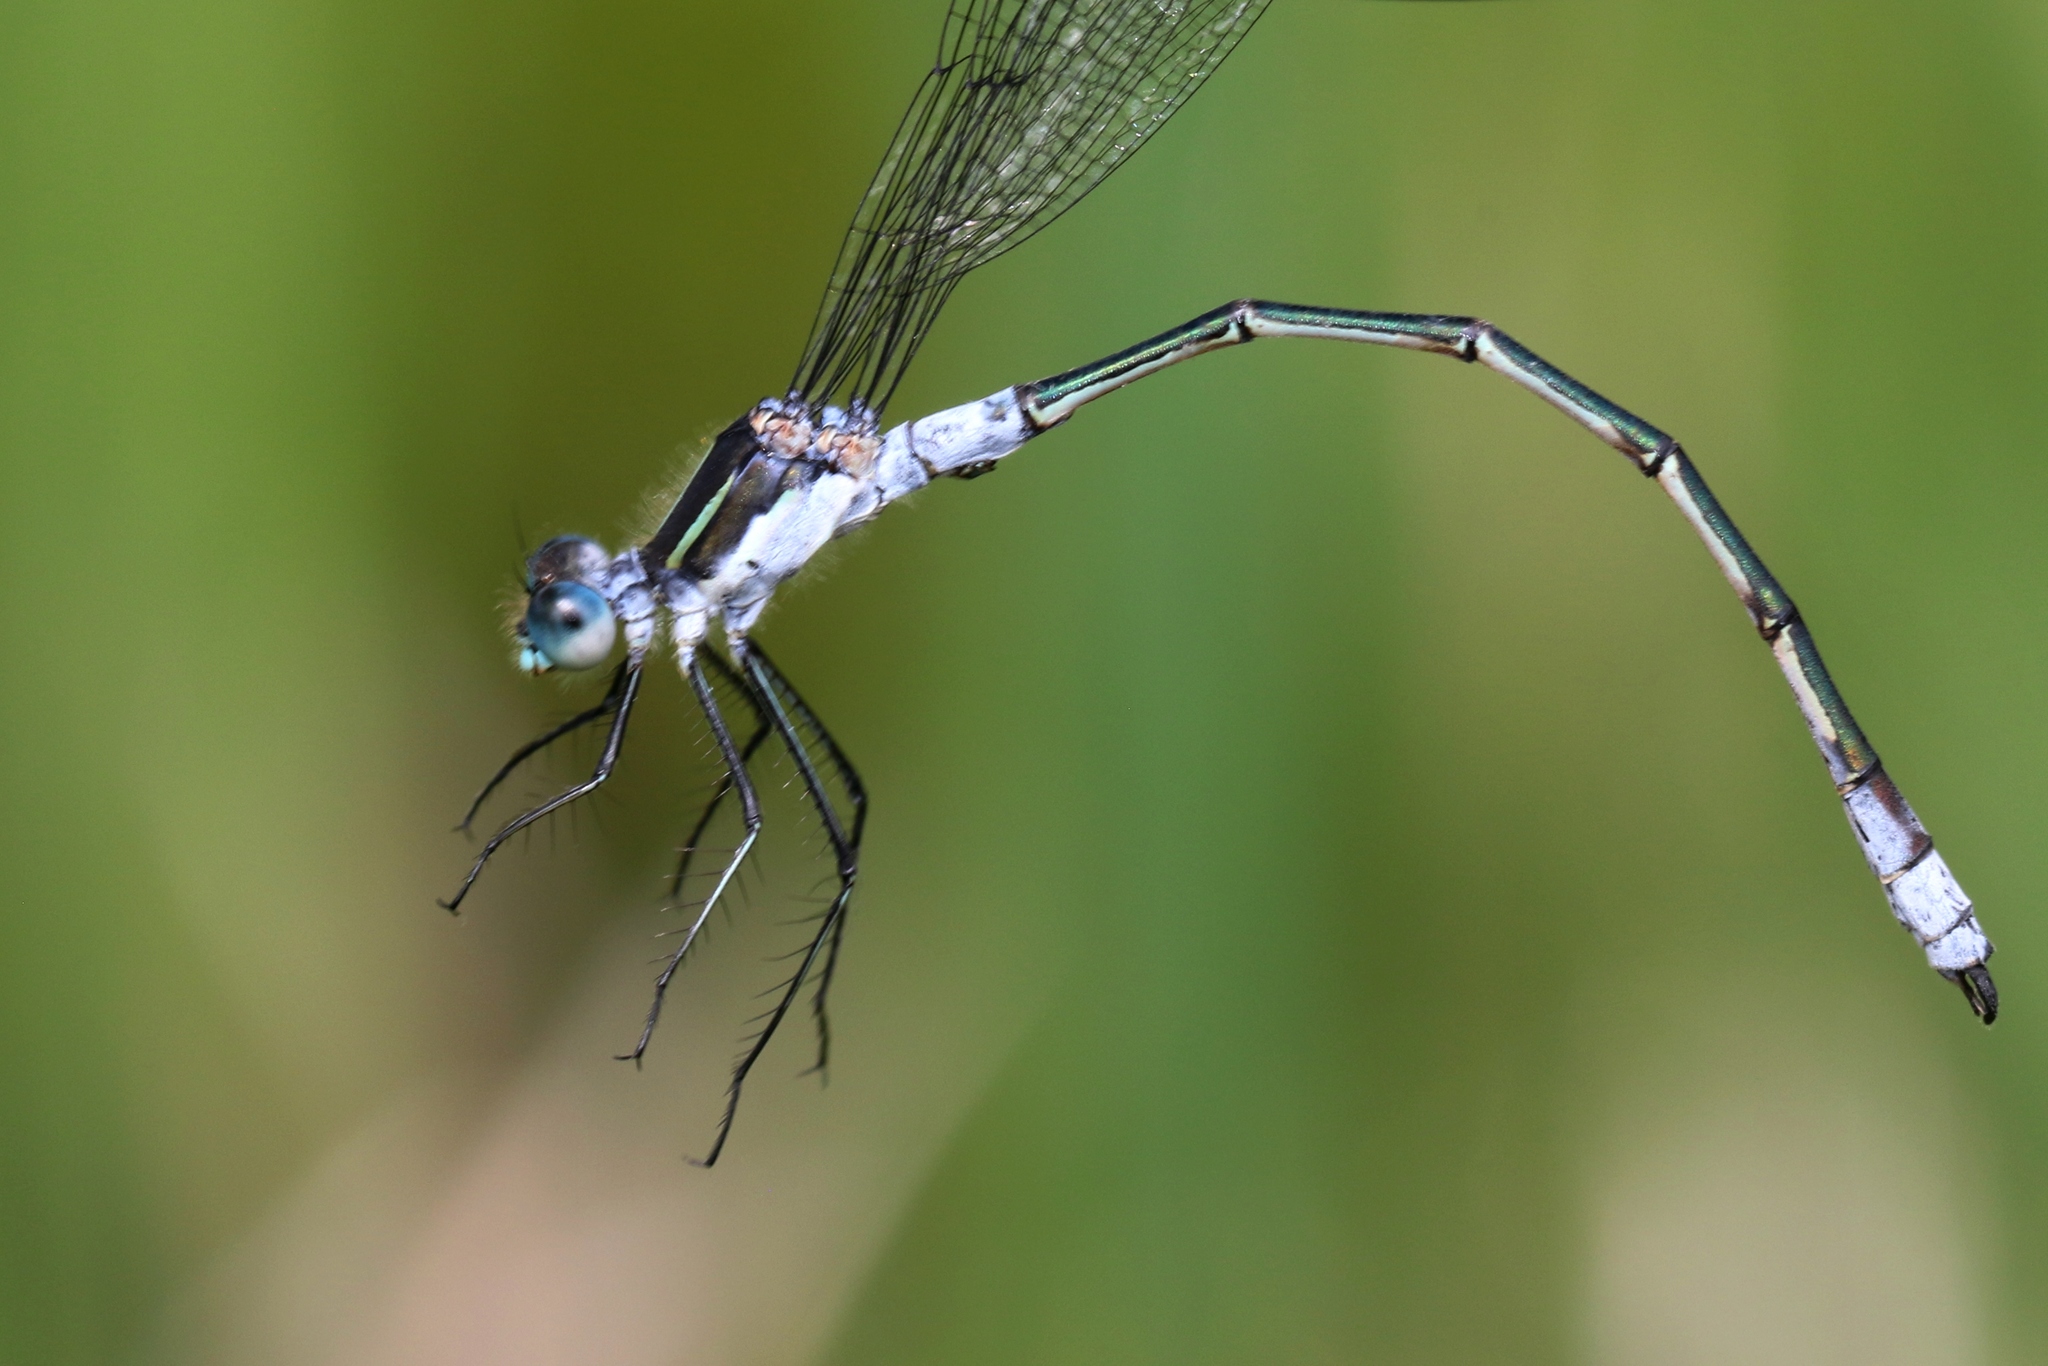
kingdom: Animalia
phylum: Arthropoda
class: Insecta
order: Odonata
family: Lestidae
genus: Lestes
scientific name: Lestes disjunctus
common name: Northern spreadwing
